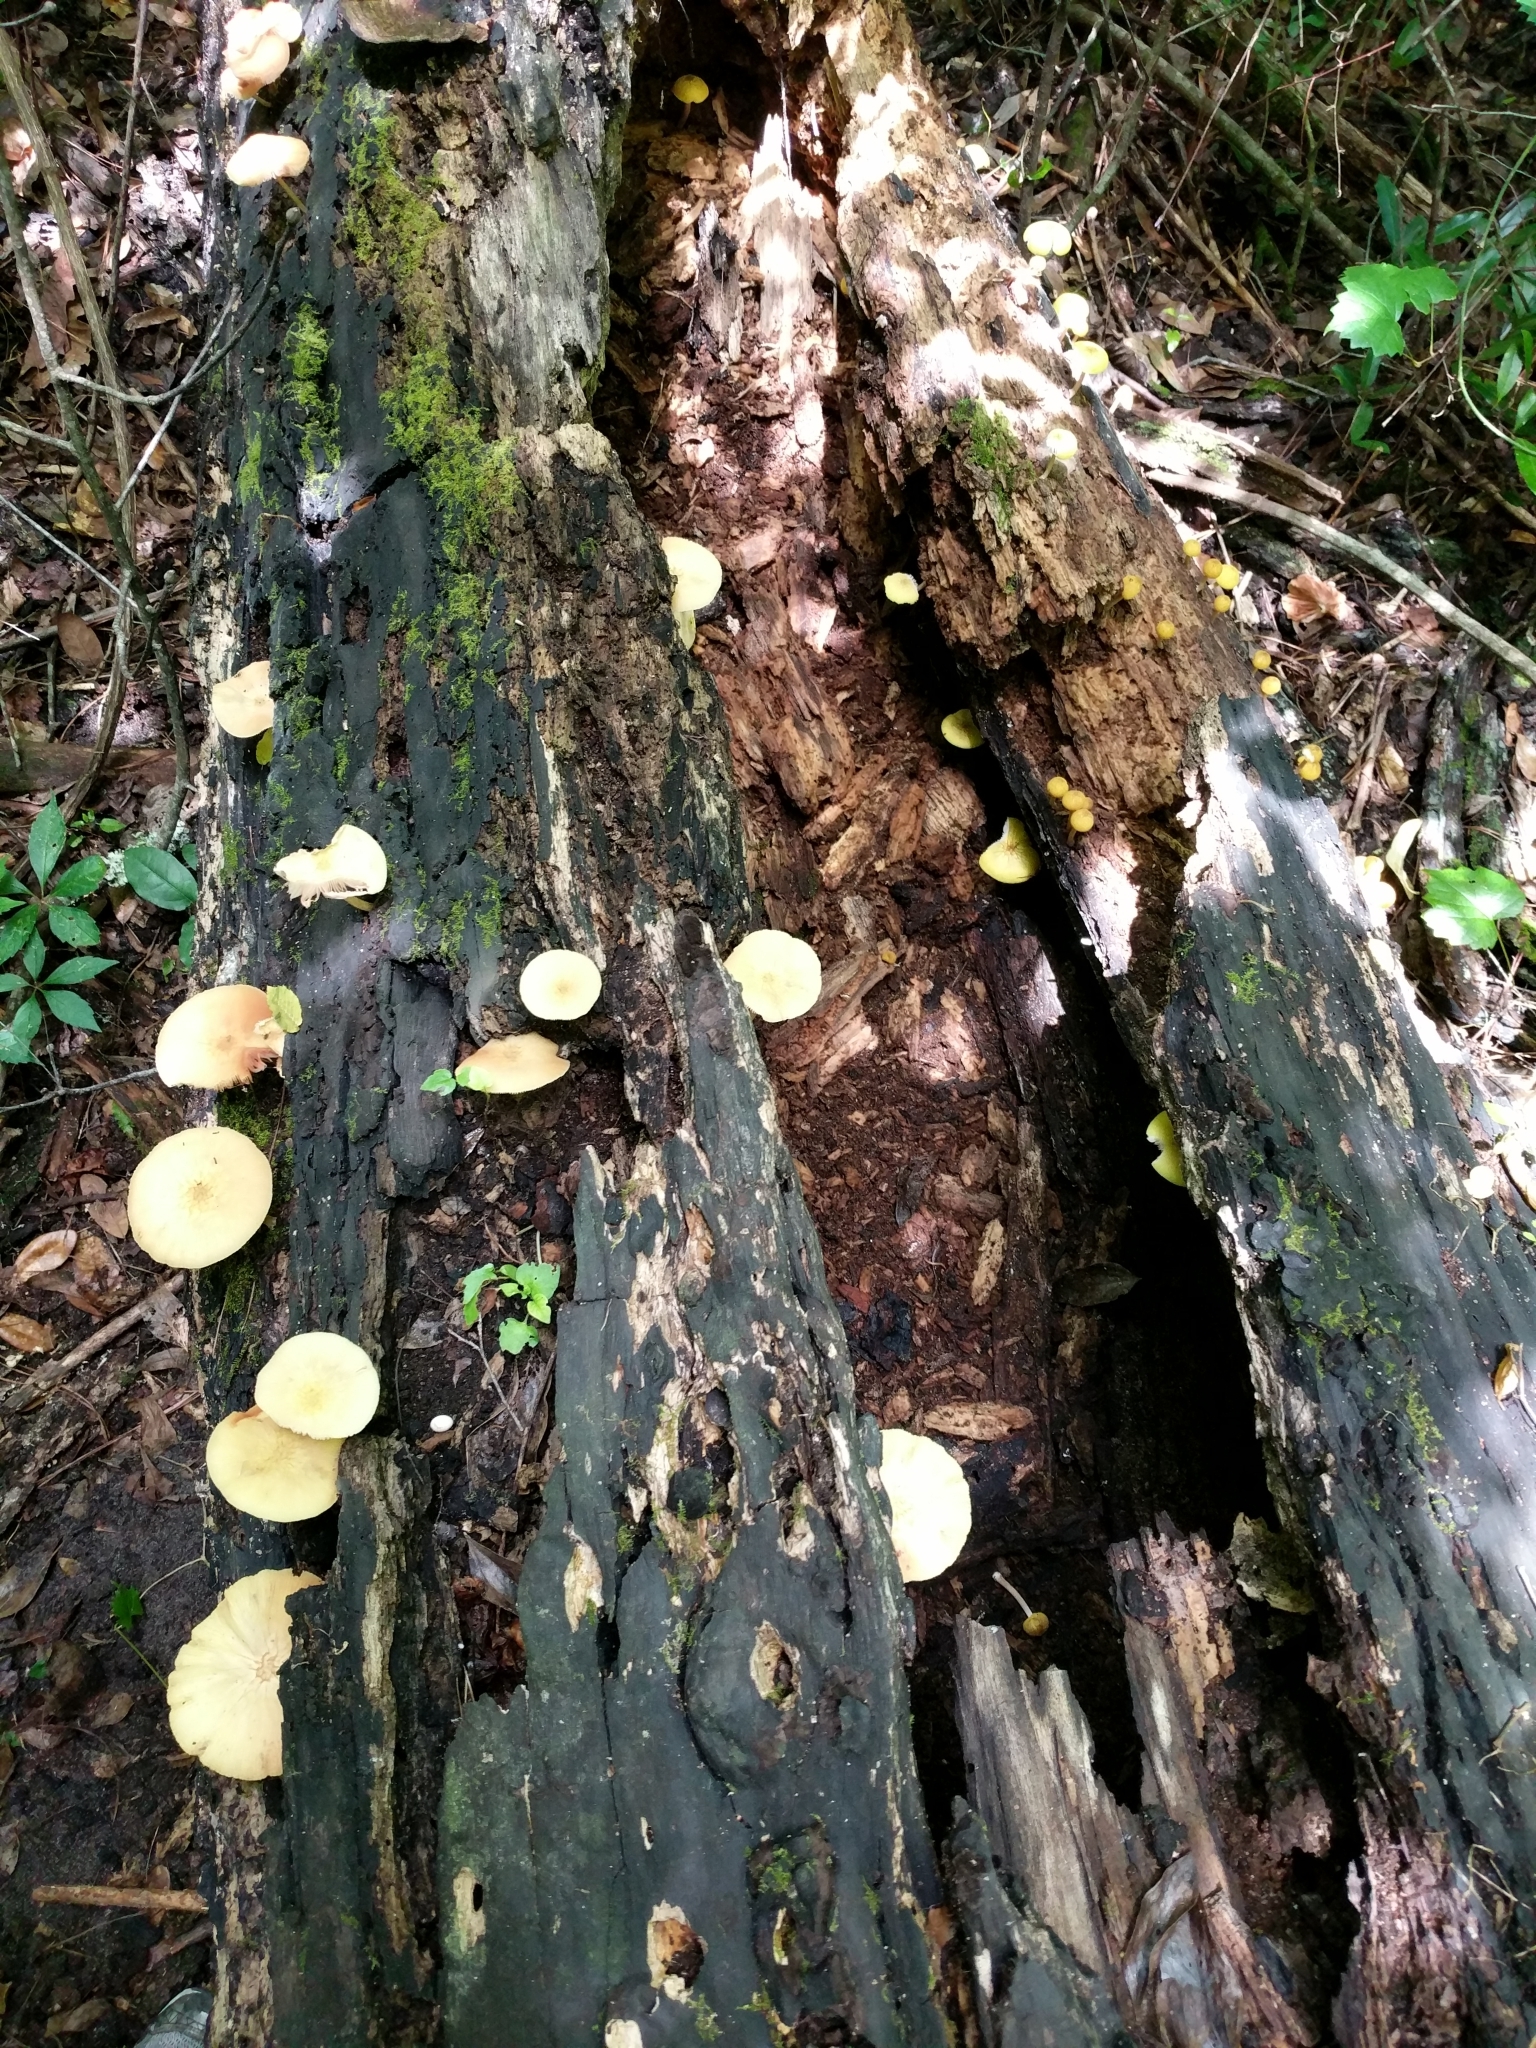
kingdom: Fungi
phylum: Basidiomycota
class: Agaricomycetes
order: Agaricales
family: Pluteaceae
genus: Pluteus
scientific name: Pluteus chrysaegis
